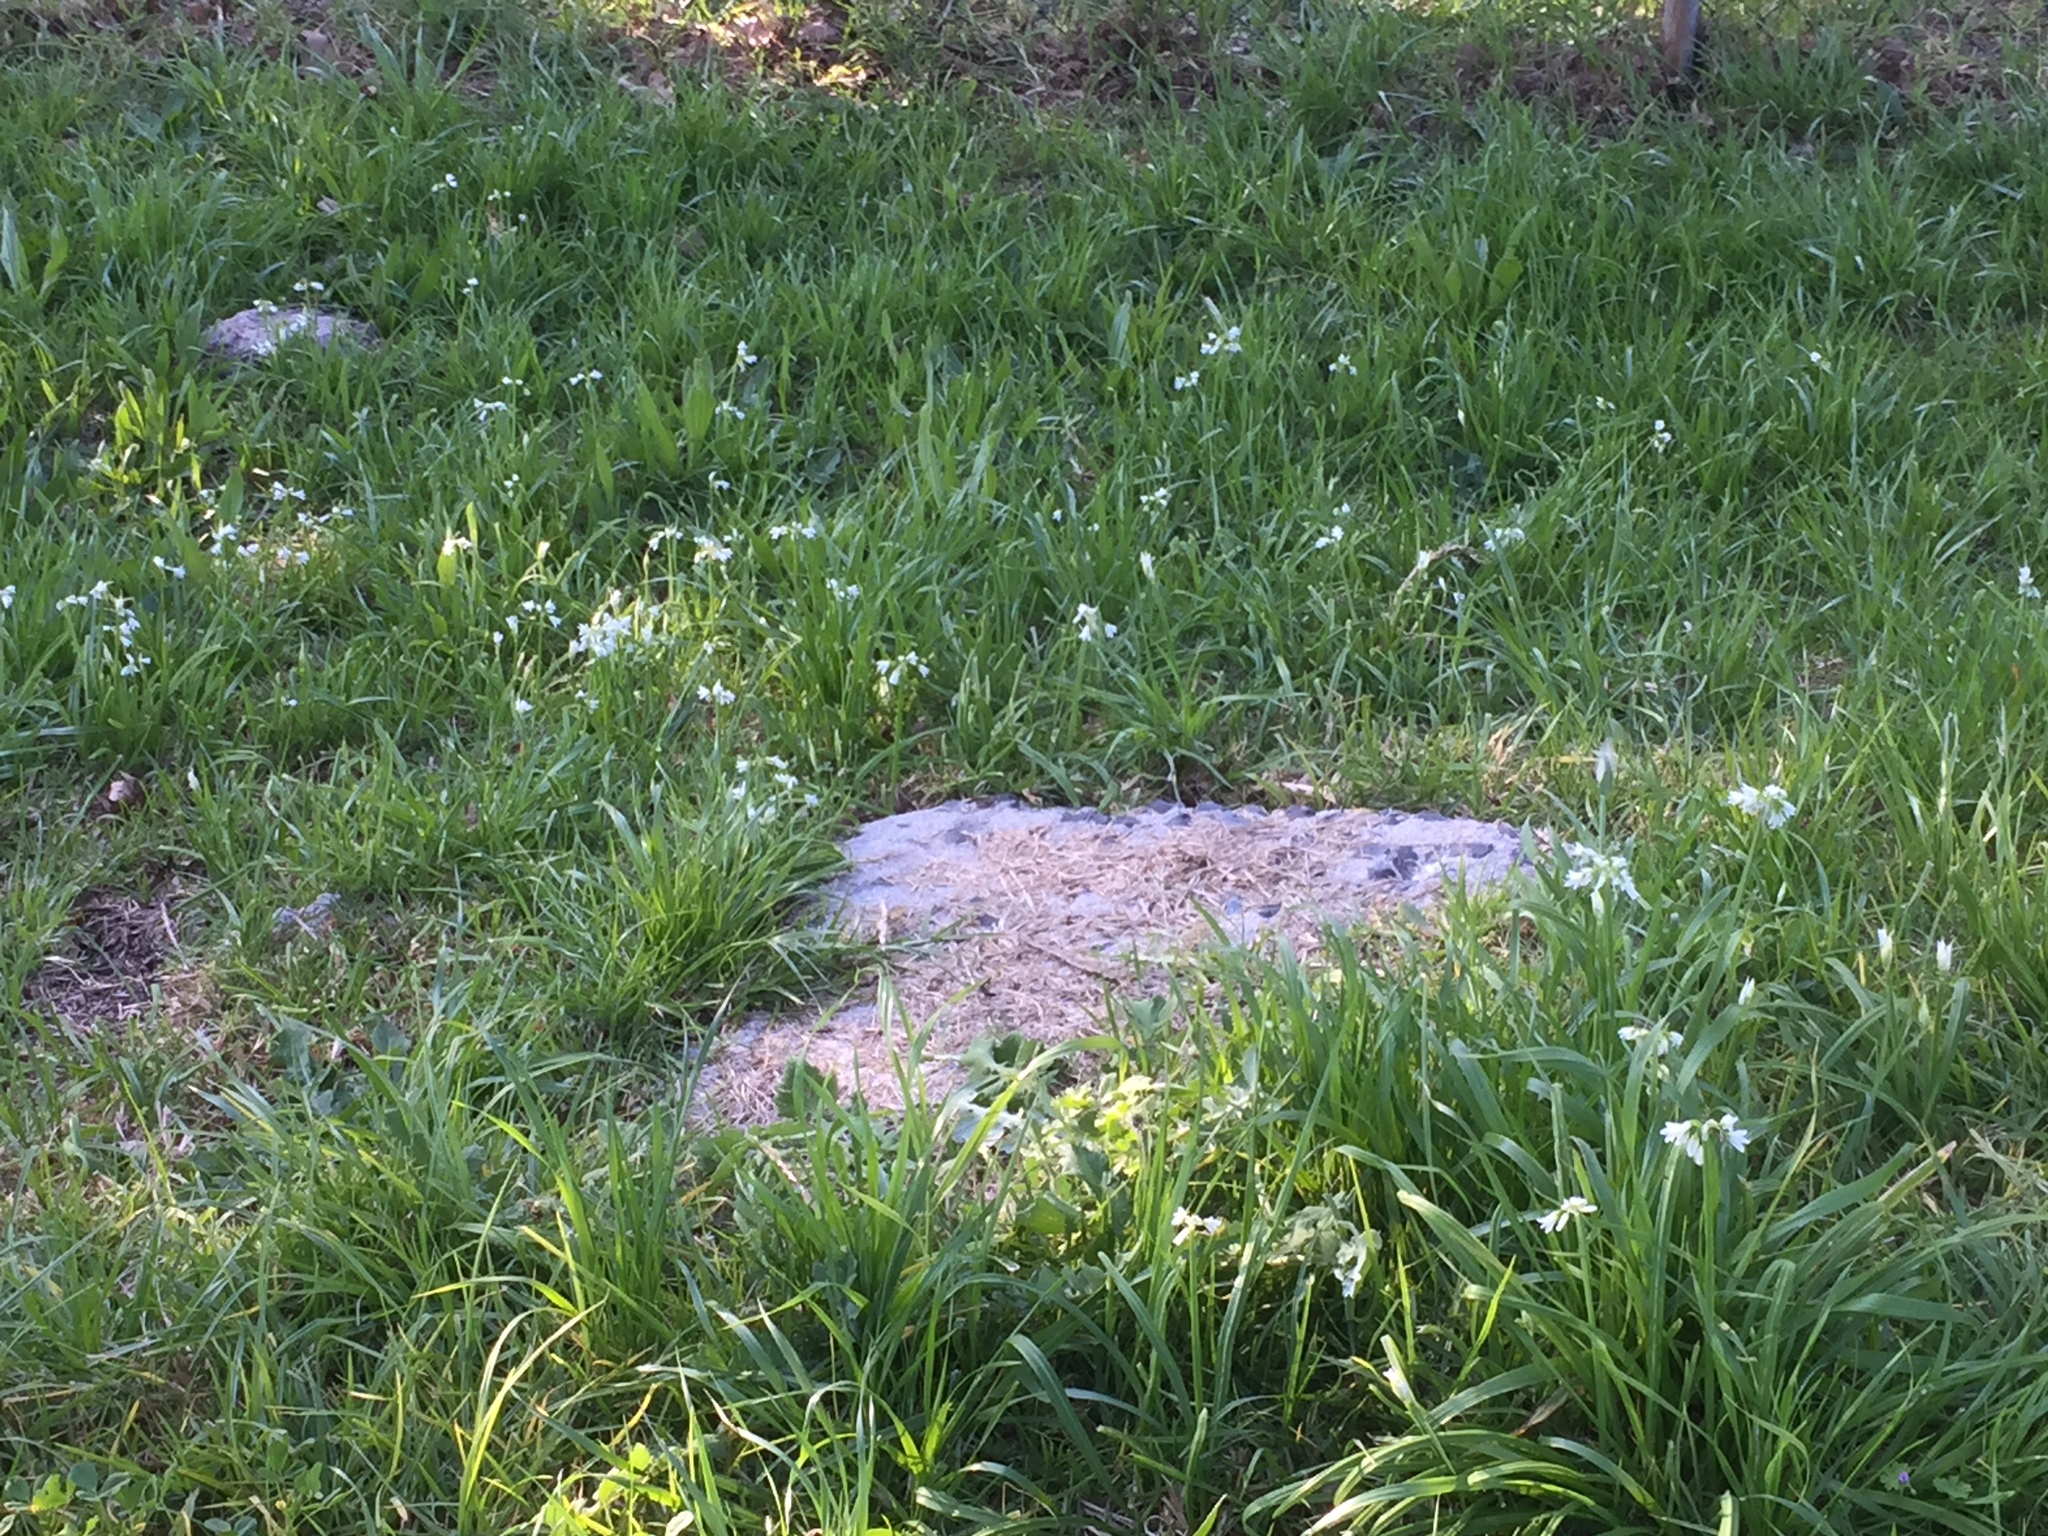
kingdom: Plantae
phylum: Tracheophyta
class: Liliopsida
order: Asparagales
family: Amaryllidaceae
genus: Allium
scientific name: Allium triquetrum
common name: Three-cornered garlic
